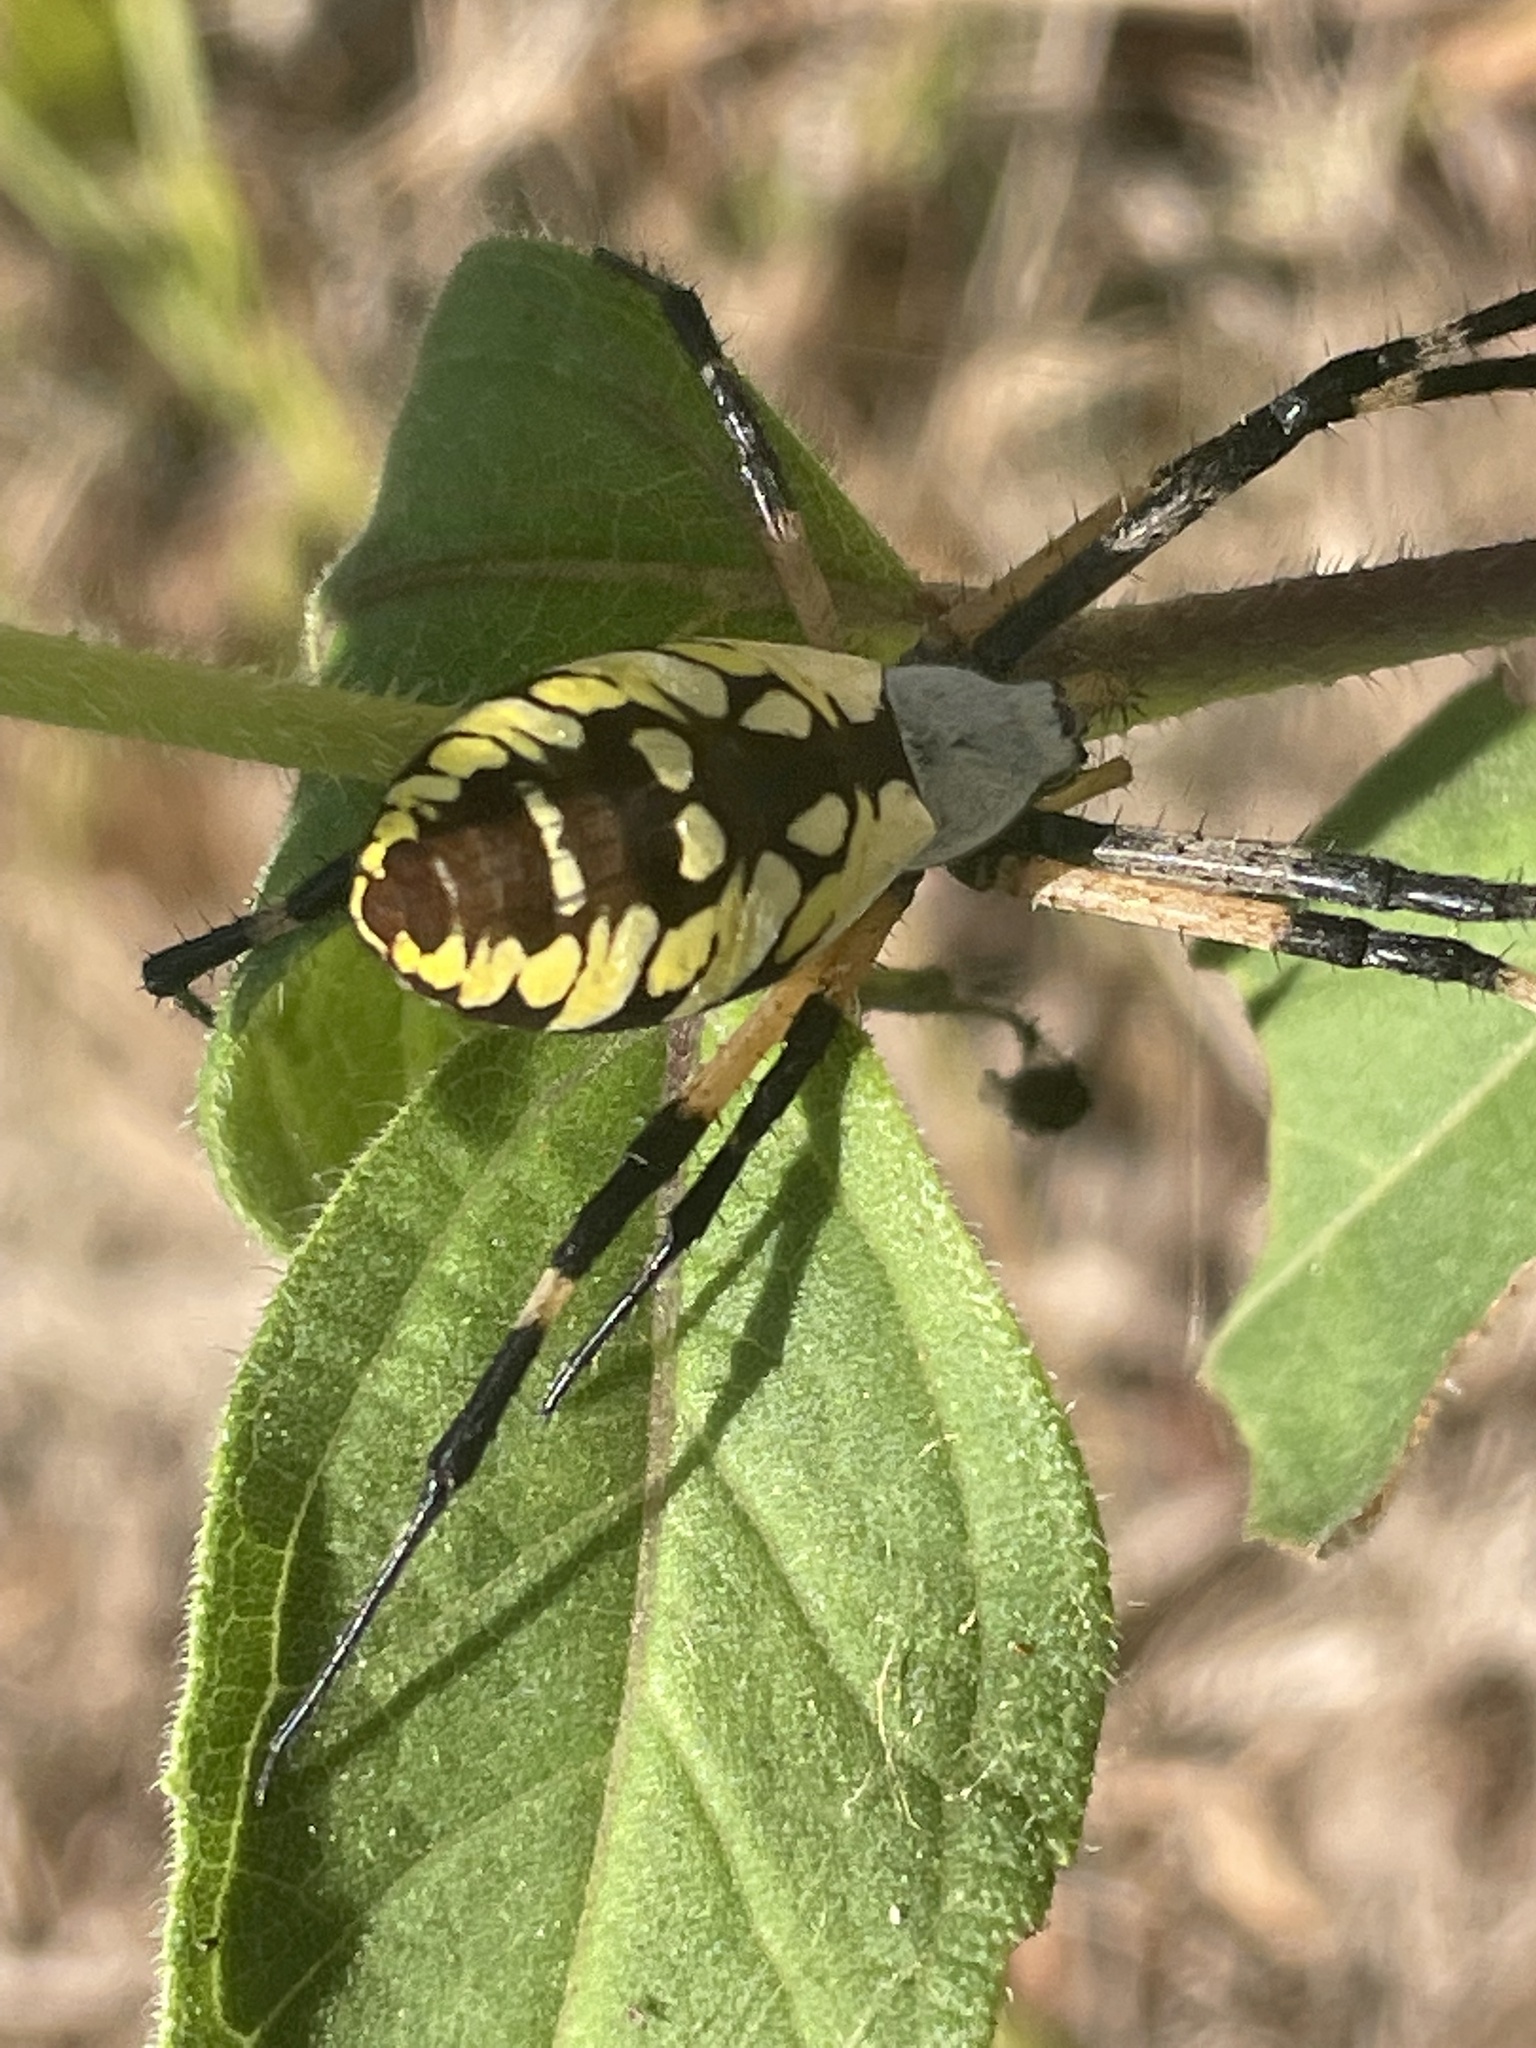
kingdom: Animalia
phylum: Arthropoda
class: Arachnida
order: Araneae
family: Araneidae
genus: Argiope
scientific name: Argiope aurantia
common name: Orb weavers
